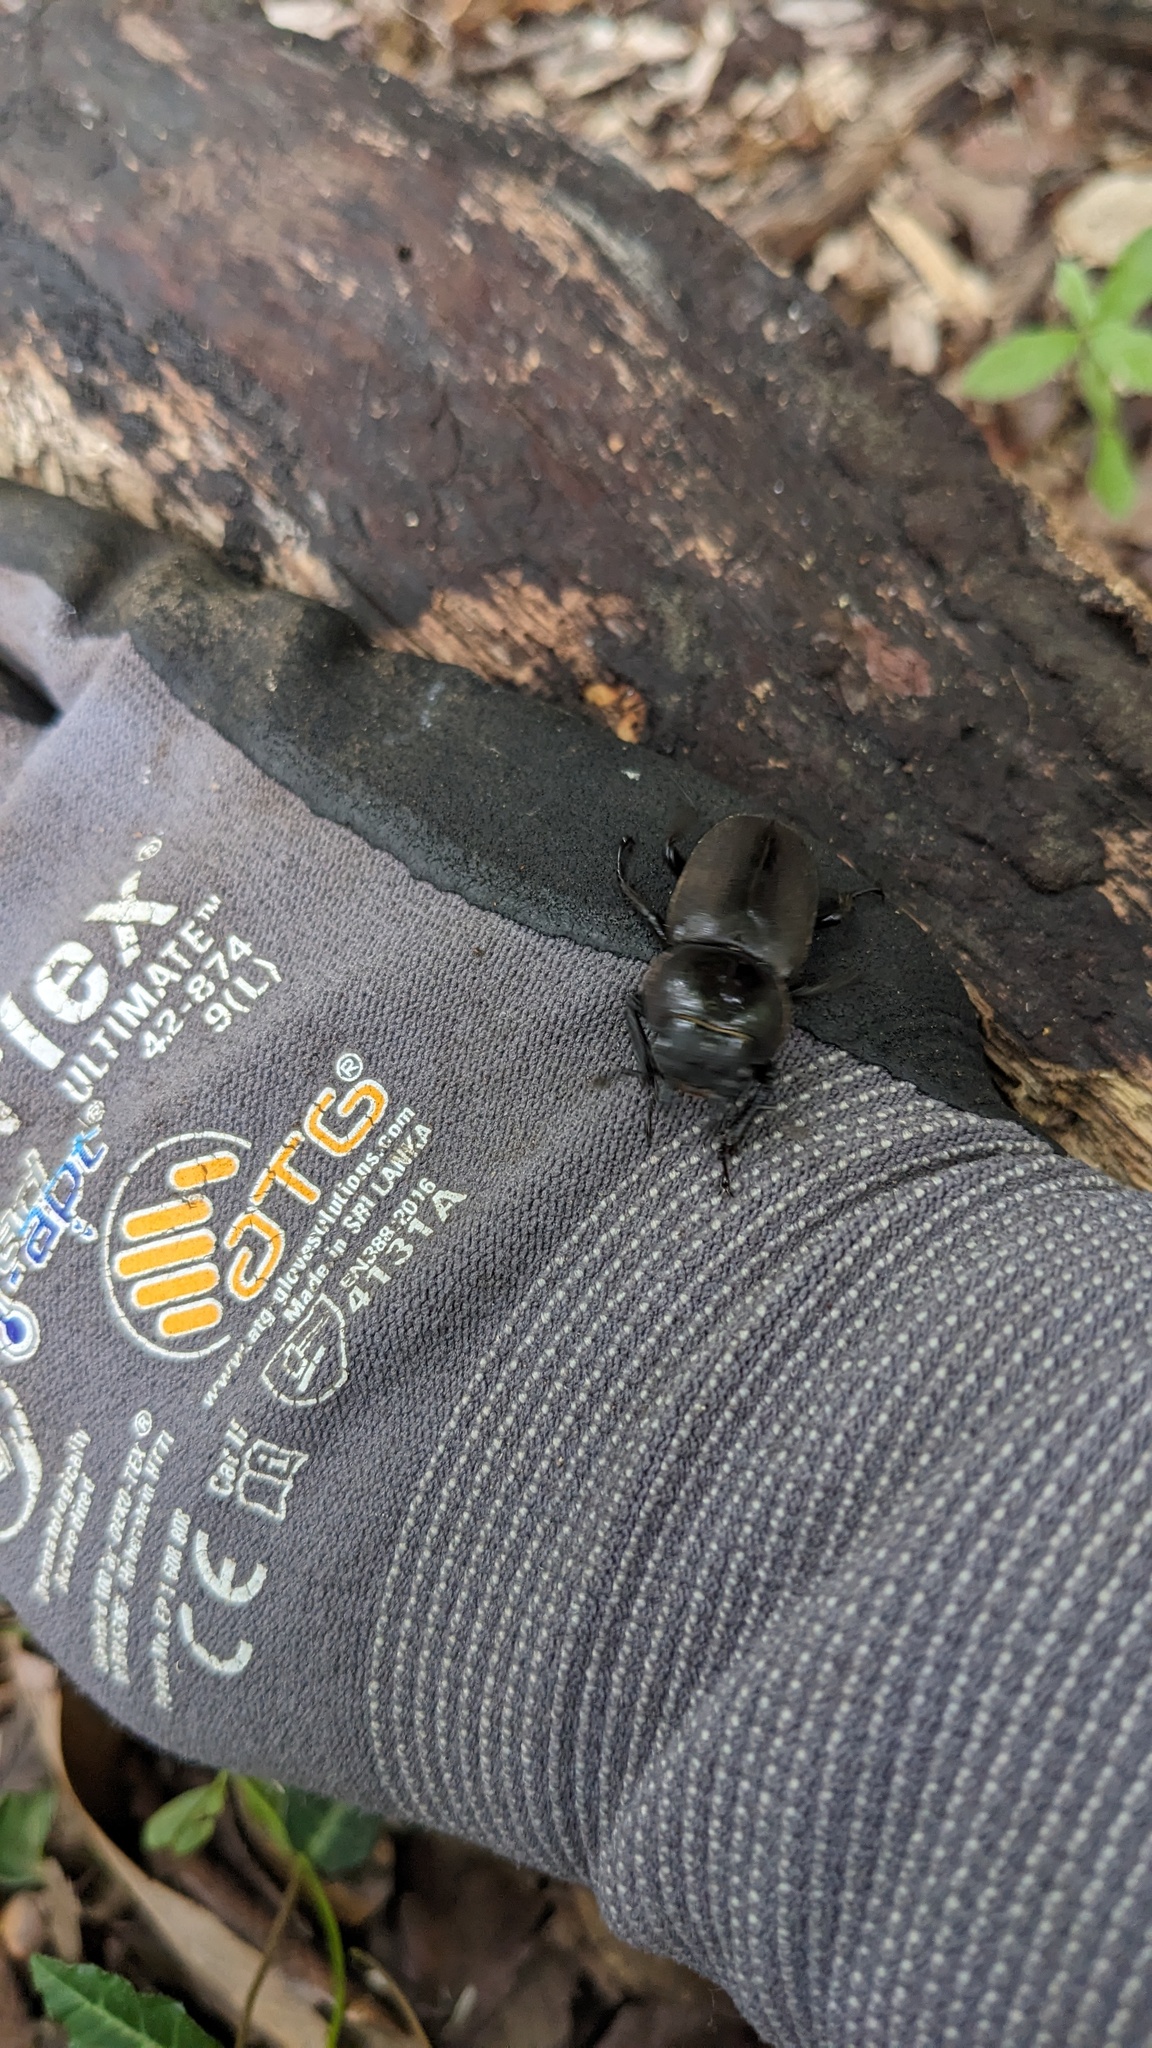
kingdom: Animalia
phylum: Arthropoda
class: Insecta
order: Coleoptera
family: Lucanidae
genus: Dorcus
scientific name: Dorcus rectus
